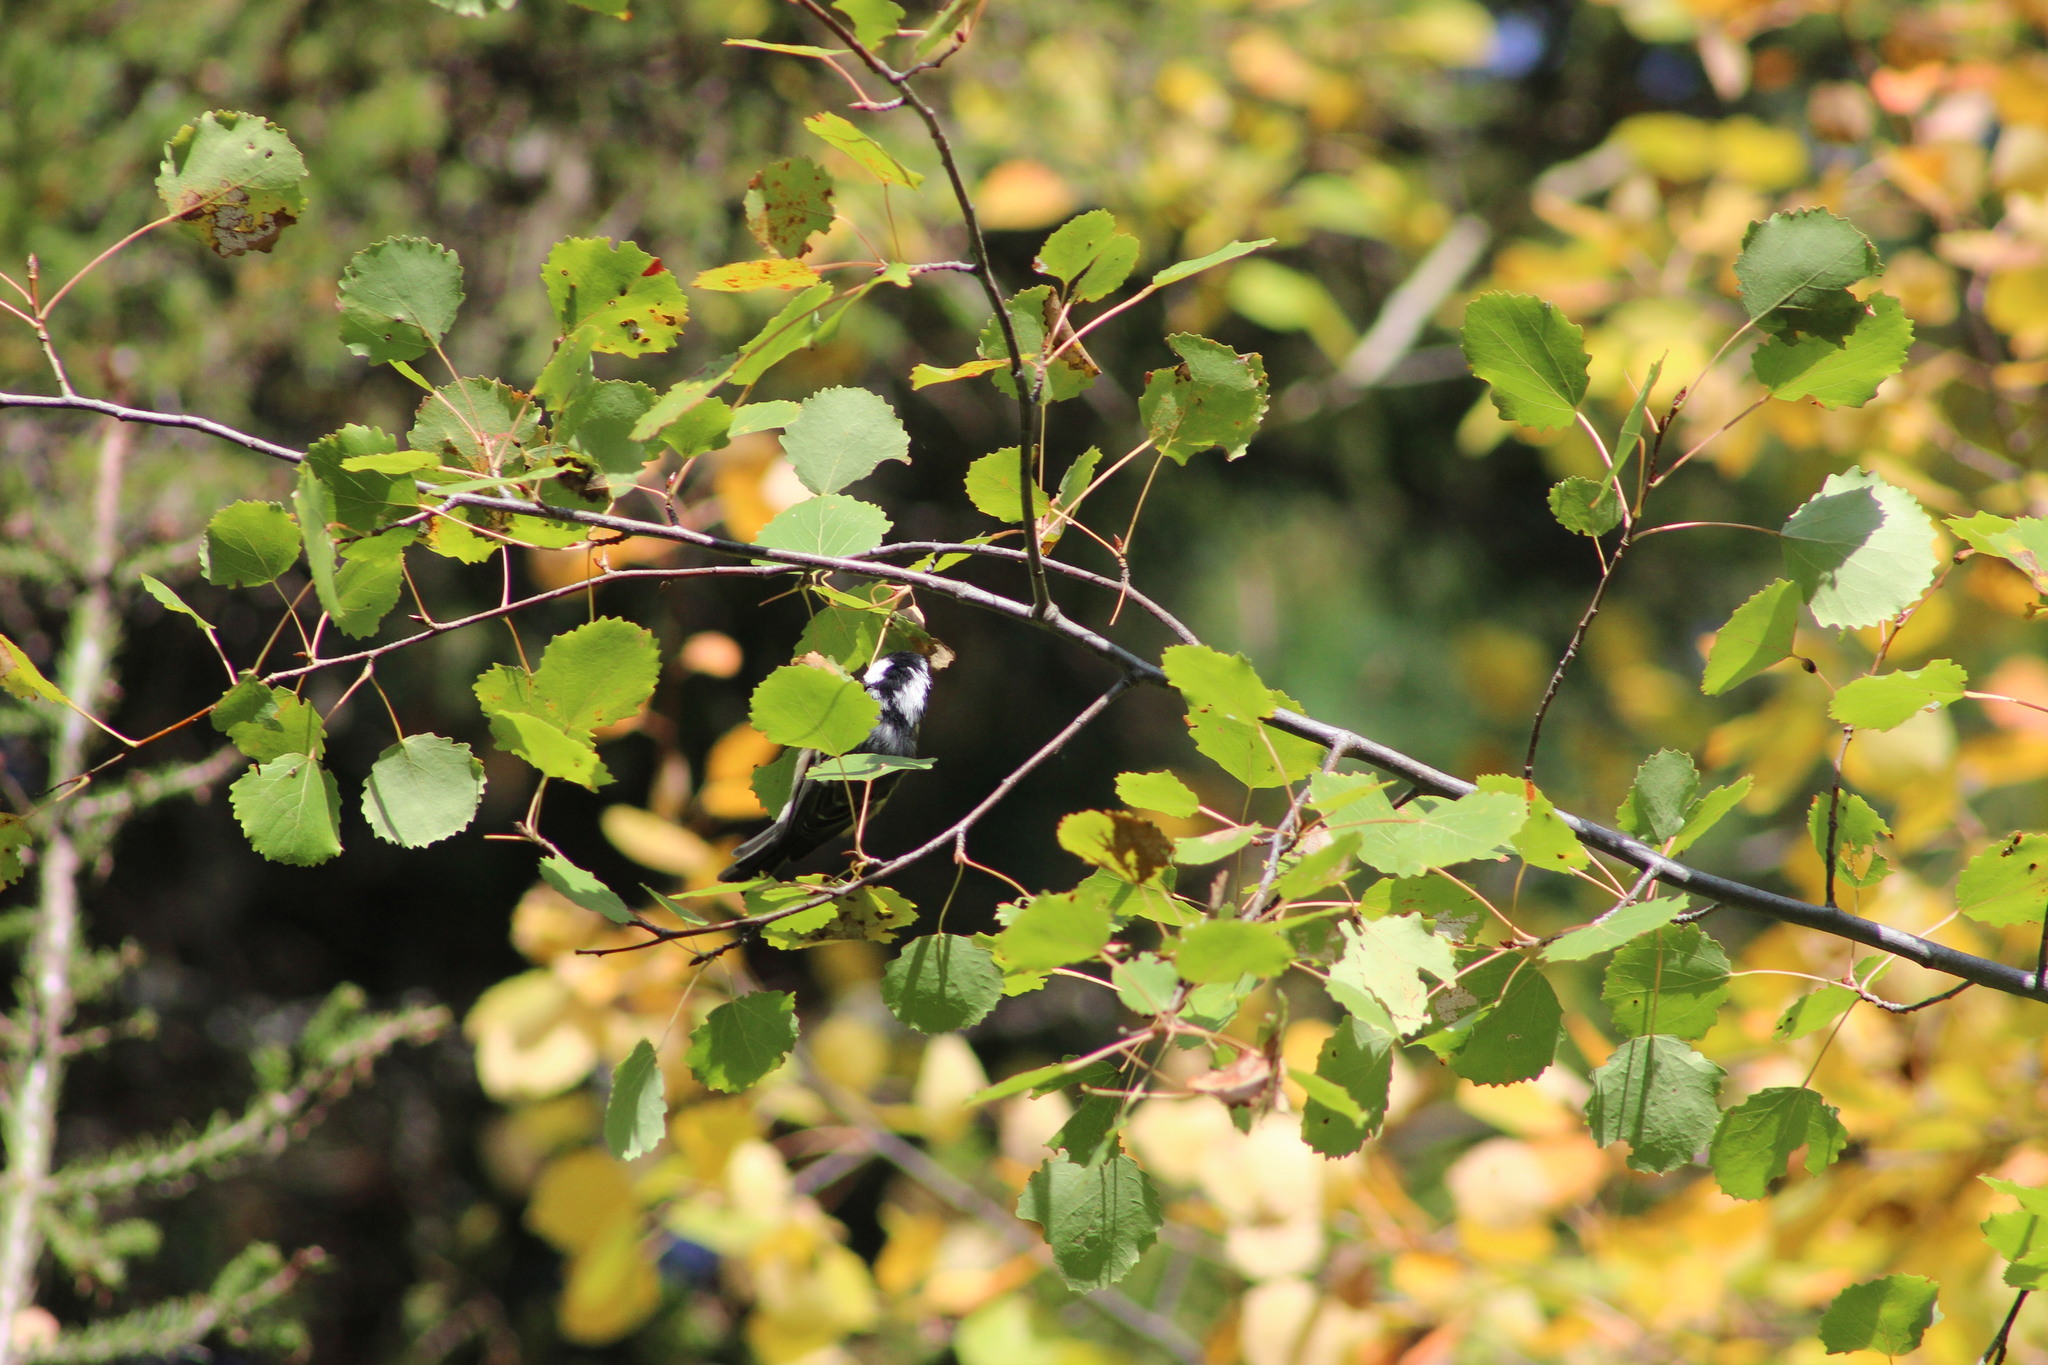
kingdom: Animalia
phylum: Chordata
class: Aves
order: Passeriformes
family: Paridae
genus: Periparus
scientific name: Periparus ater
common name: Coal tit
